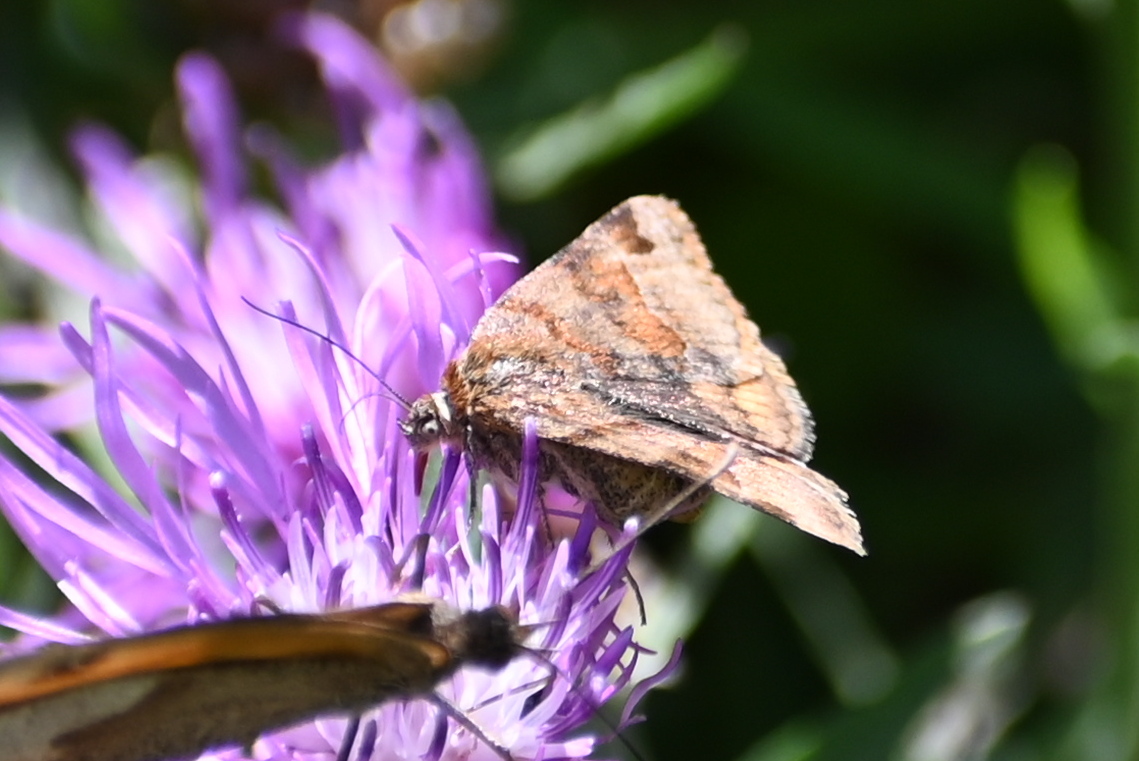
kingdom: Animalia
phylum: Arthropoda
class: Insecta
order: Lepidoptera
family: Erebidae
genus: Euclidia
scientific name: Euclidia glyphica
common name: Burnet companion
